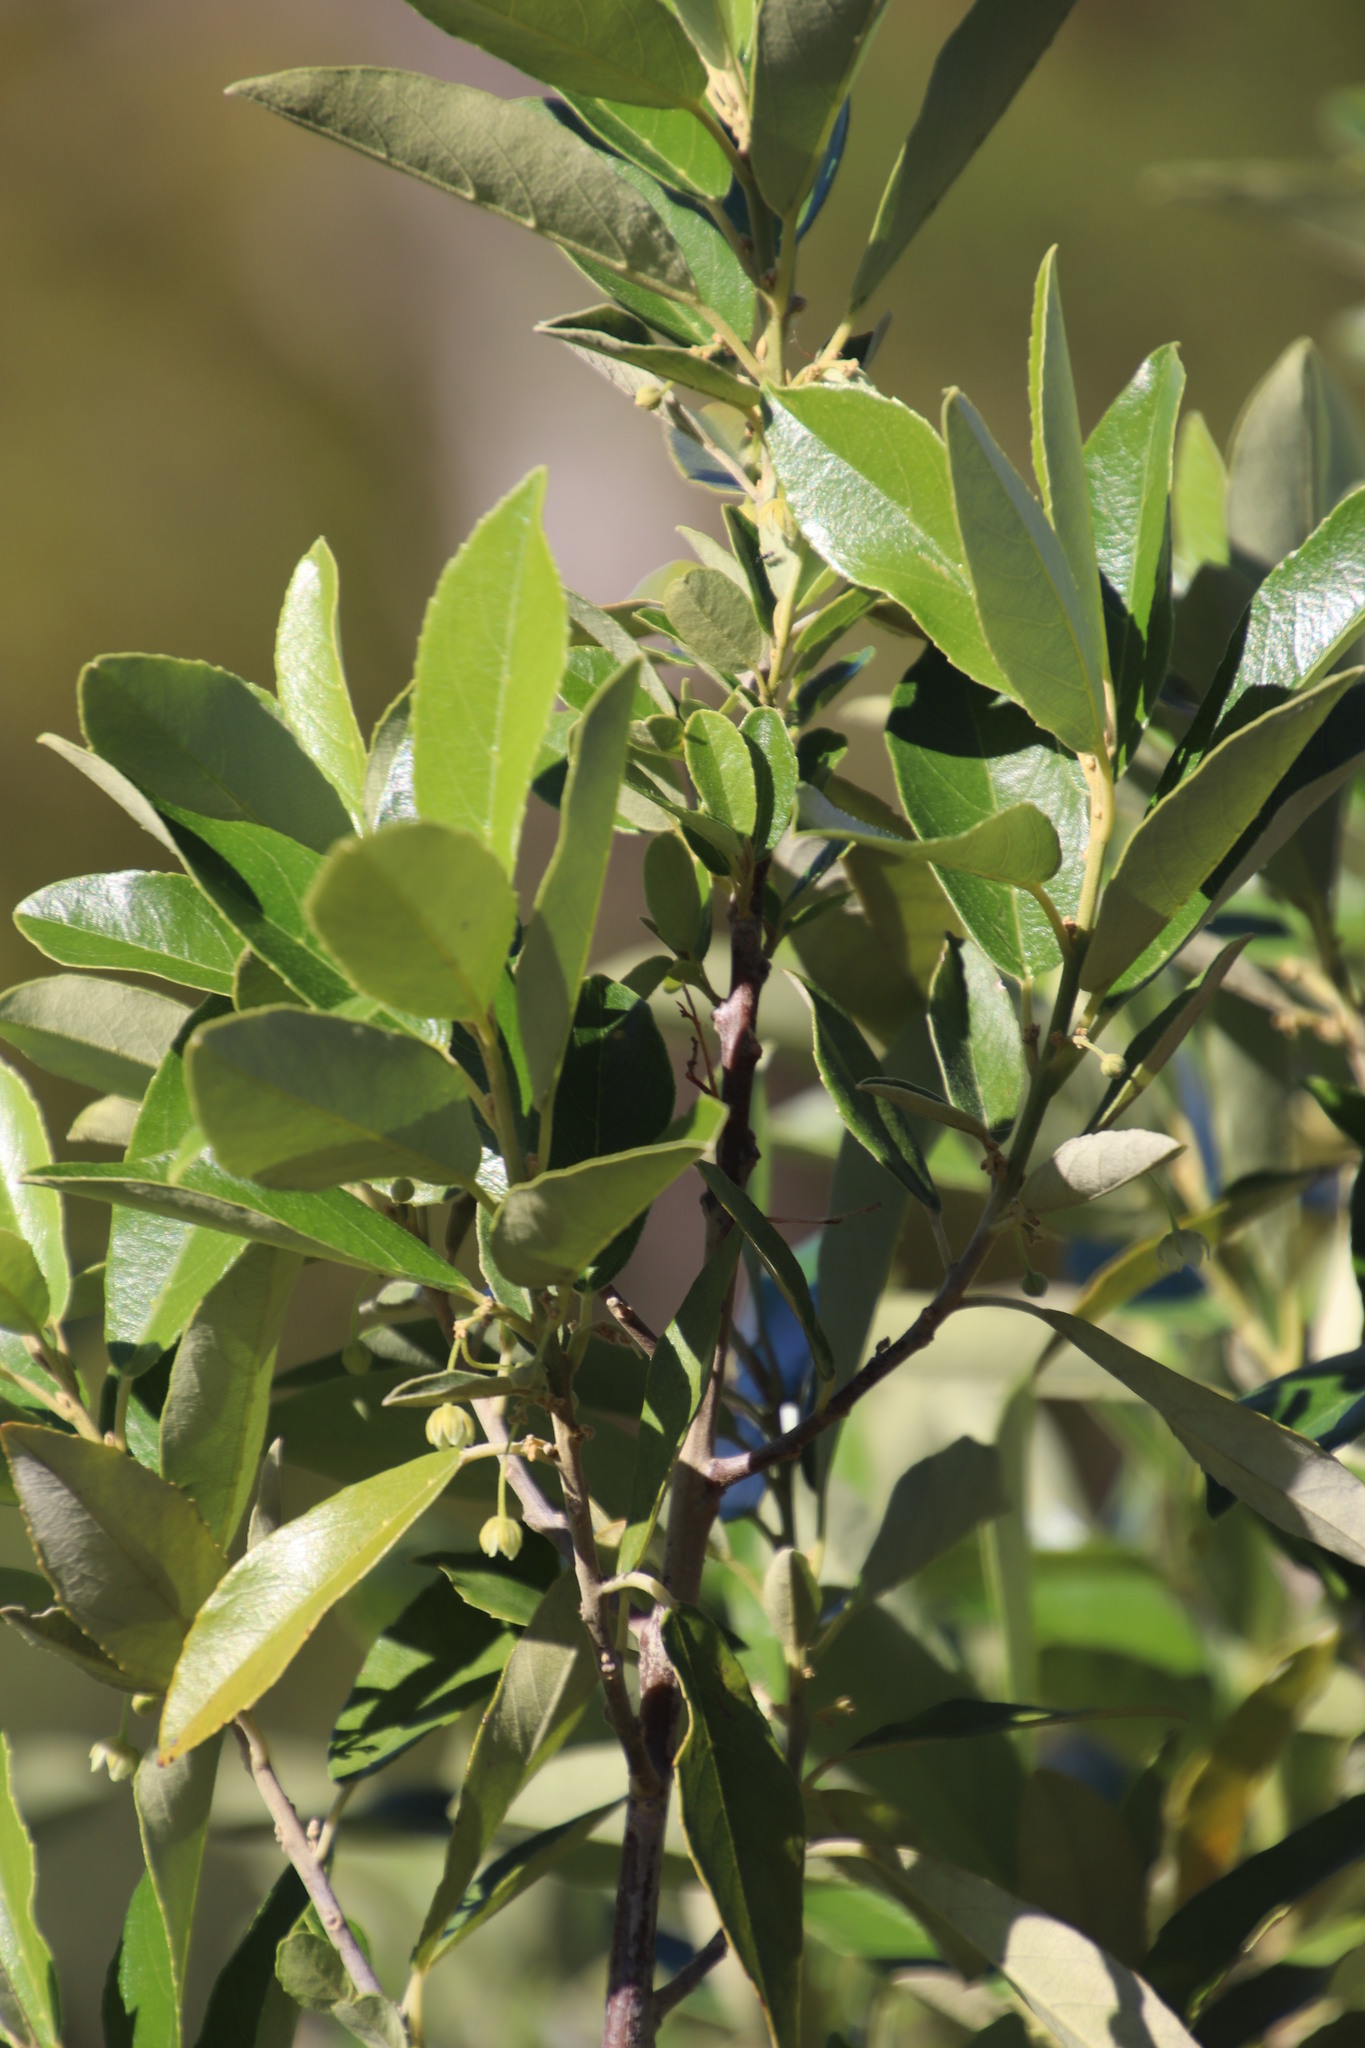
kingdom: Plantae
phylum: Tracheophyta
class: Magnoliopsida
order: Malpighiales
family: Achariaceae
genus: Kiggelaria
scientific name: Kiggelaria africana
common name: Wild peach
